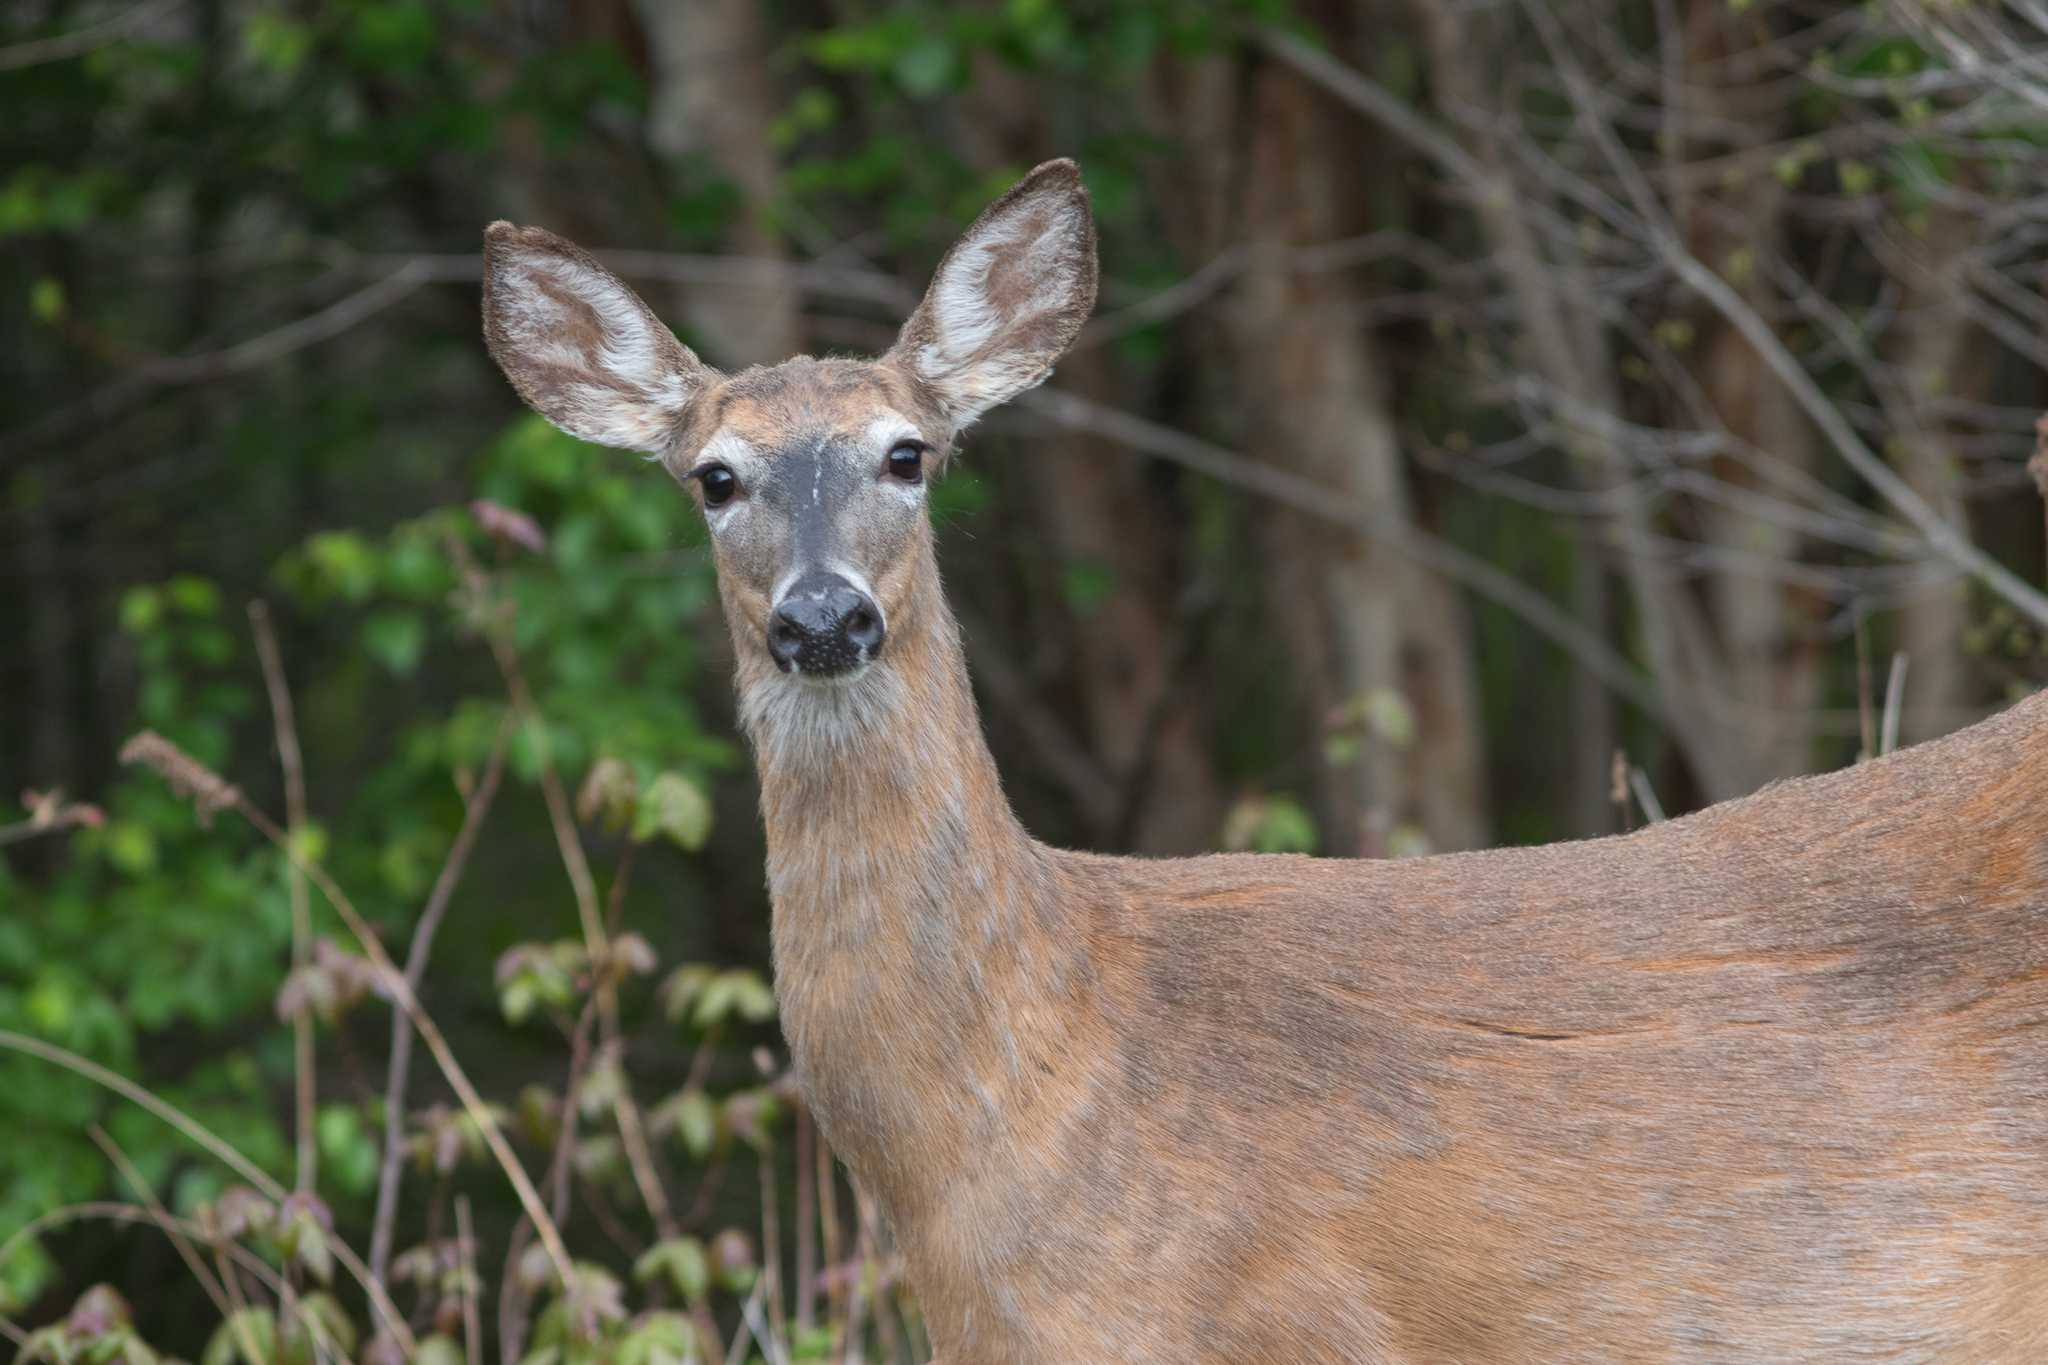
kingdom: Animalia
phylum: Chordata
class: Mammalia
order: Artiodactyla
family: Cervidae
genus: Odocoileus
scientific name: Odocoileus virginianus
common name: White-tailed deer
